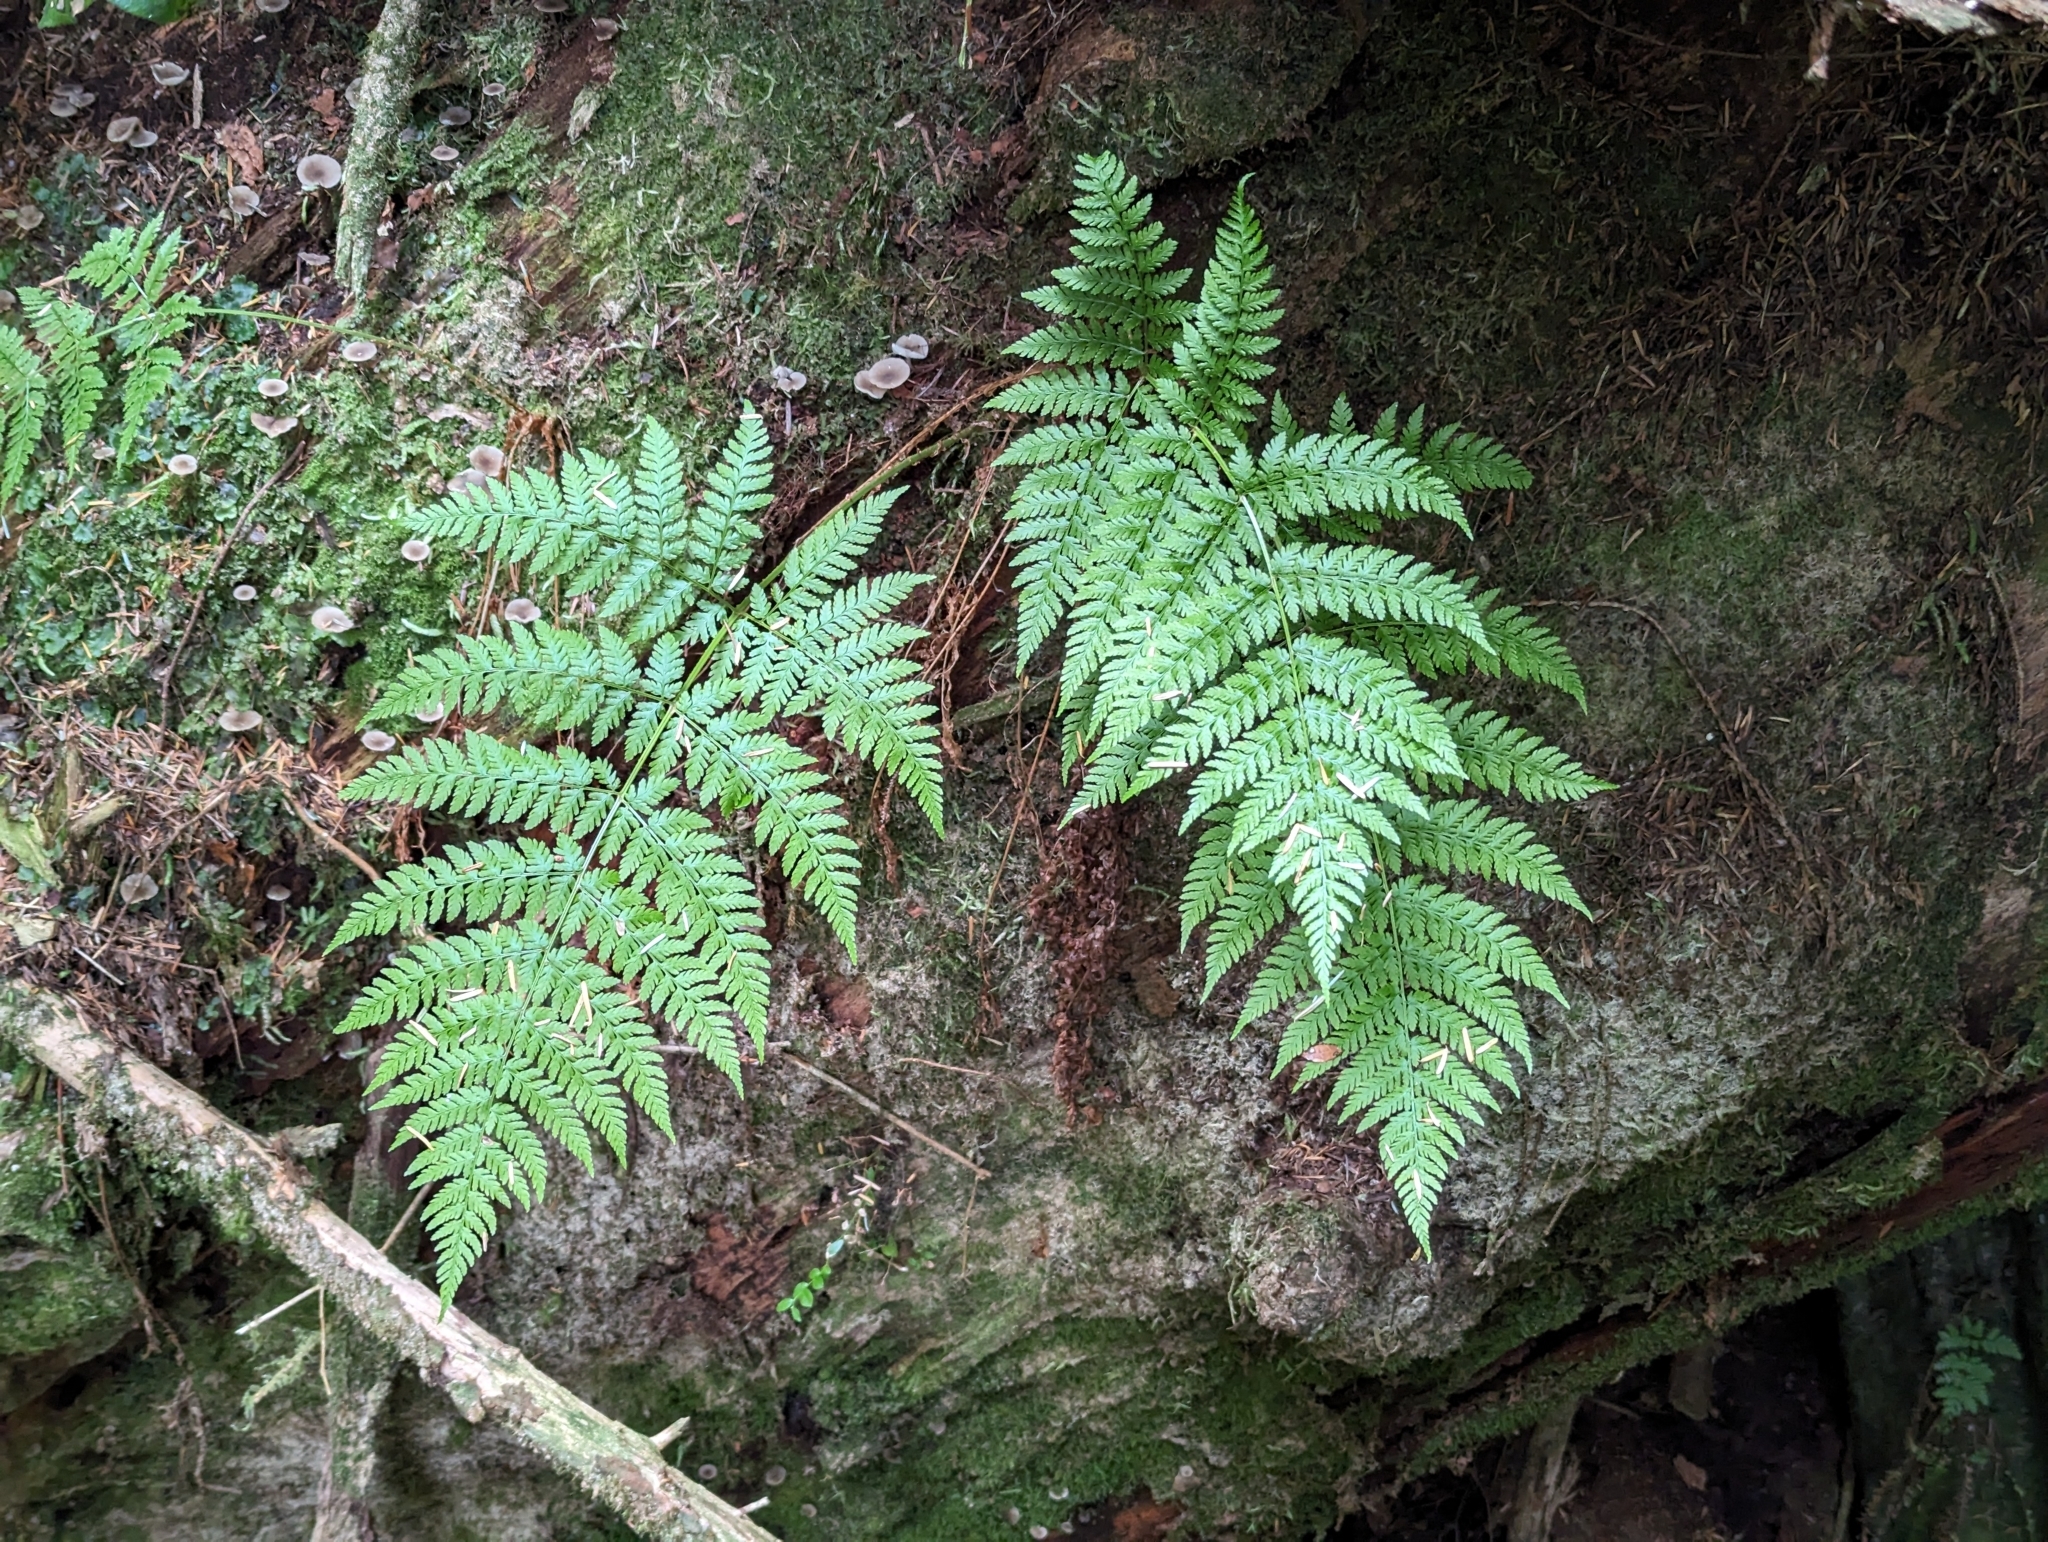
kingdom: Plantae
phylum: Tracheophyta
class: Polypodiopsida
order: Polypodiales
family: Dryopteridaceae
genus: Dryopteris
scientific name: Dryopteris expansa
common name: Northern buckler fern
